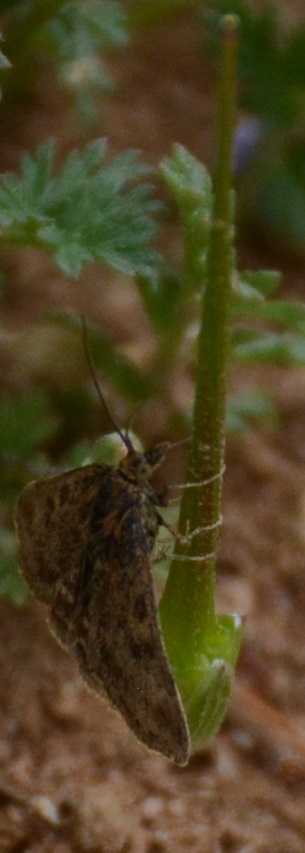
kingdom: Animalia
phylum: Arthropoda
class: Insecta
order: Lepidoptera
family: Crambidae
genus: Pyrausta
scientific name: Pyrausta despicata
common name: Straw-barred pearl
